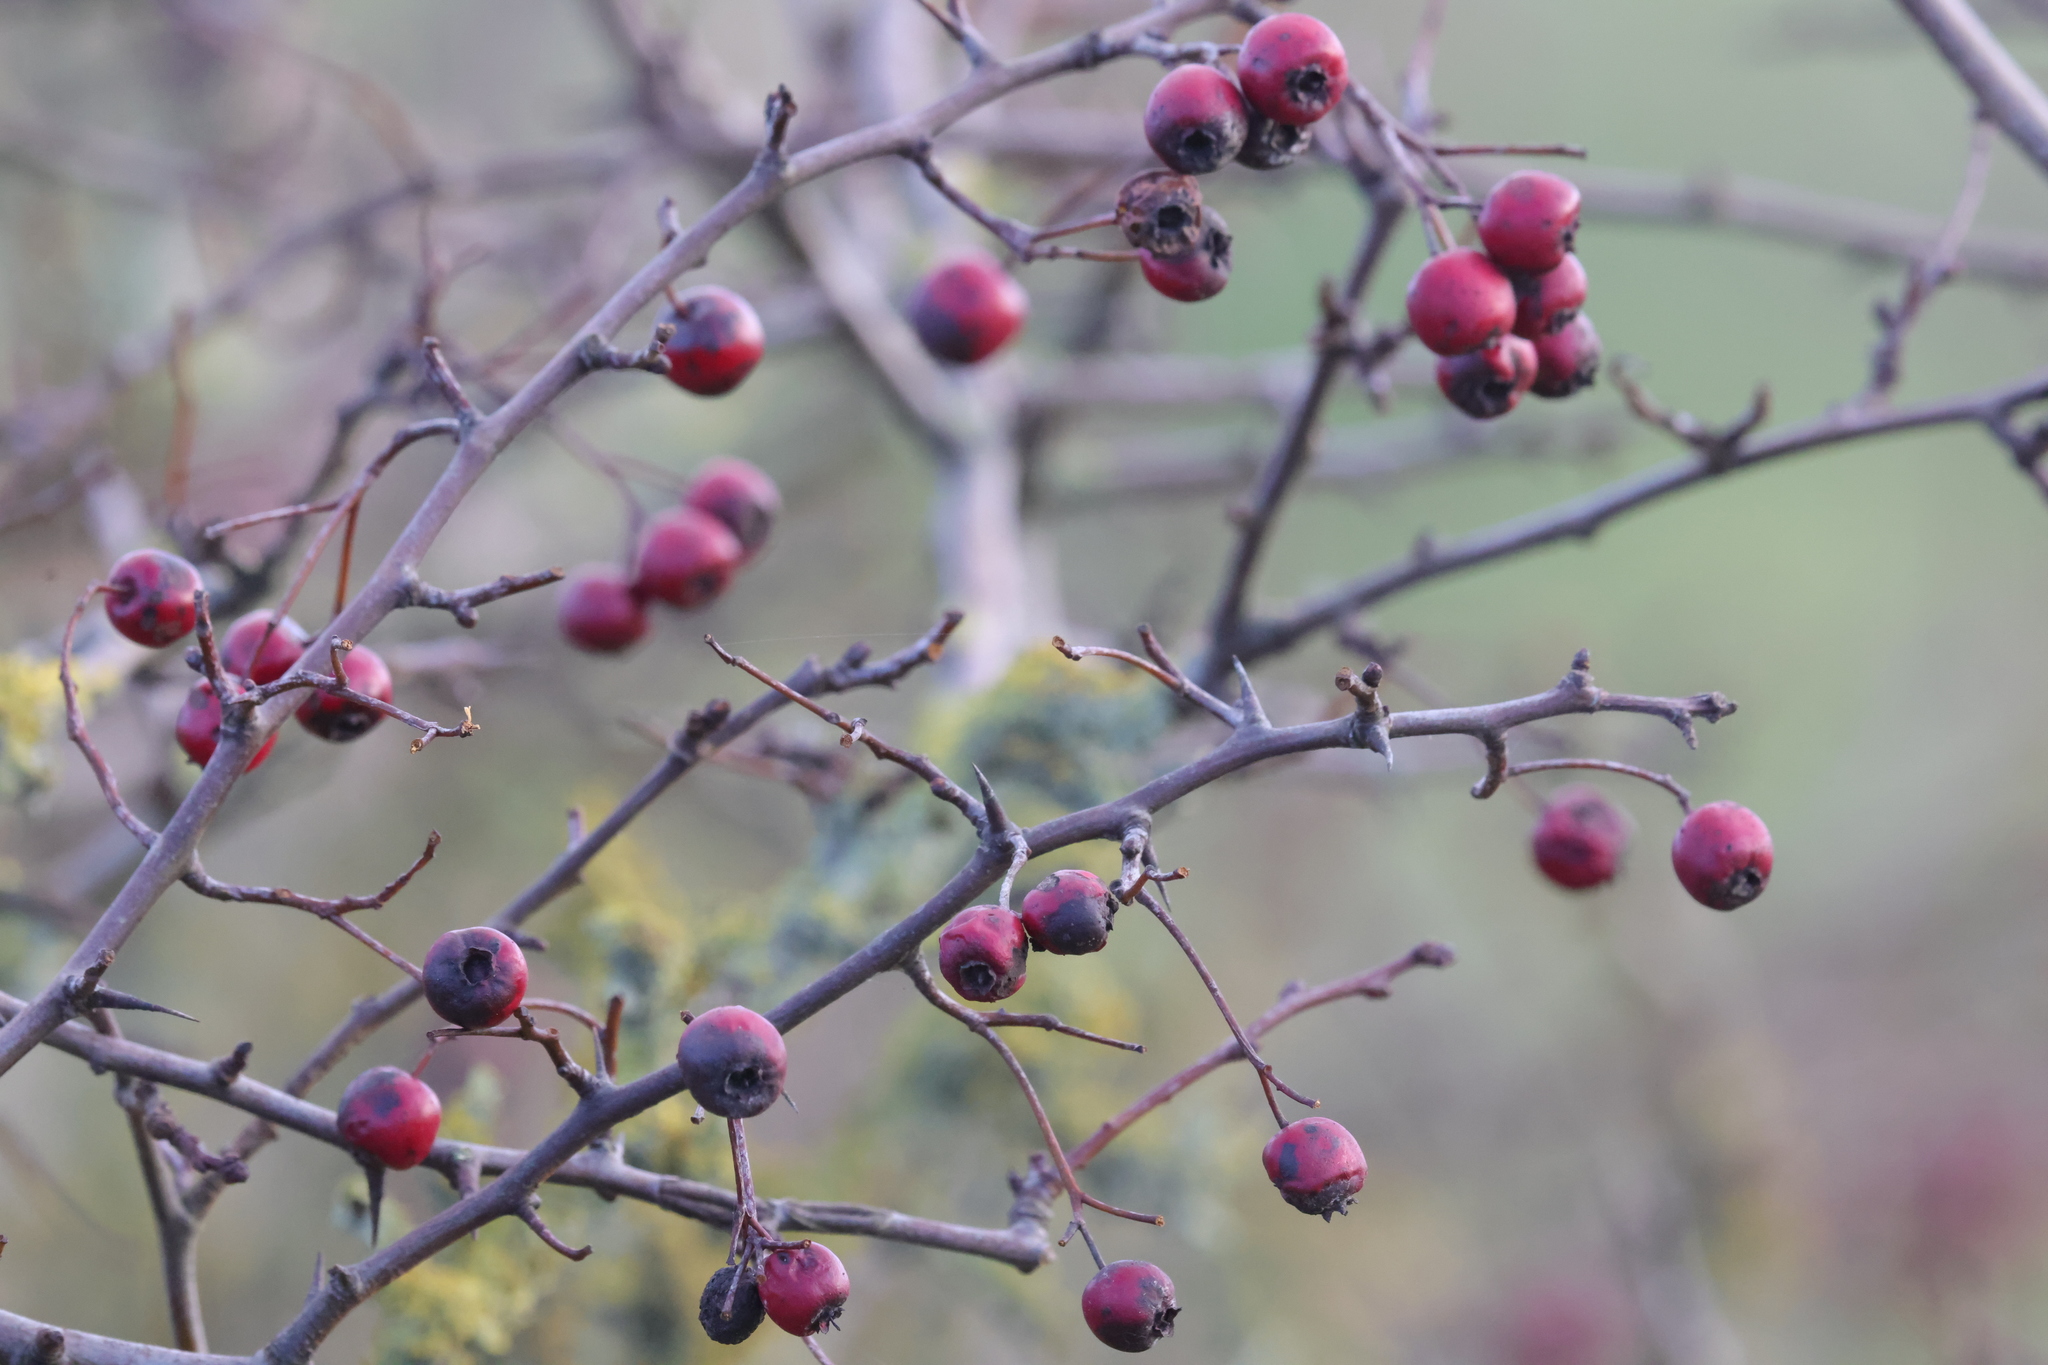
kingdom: Plantae
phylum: Tracheophyta
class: Magnoliopsida
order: Rosales
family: Rosaceae
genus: Crataegus
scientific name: Crataegus monogyna
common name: Hawthorn
